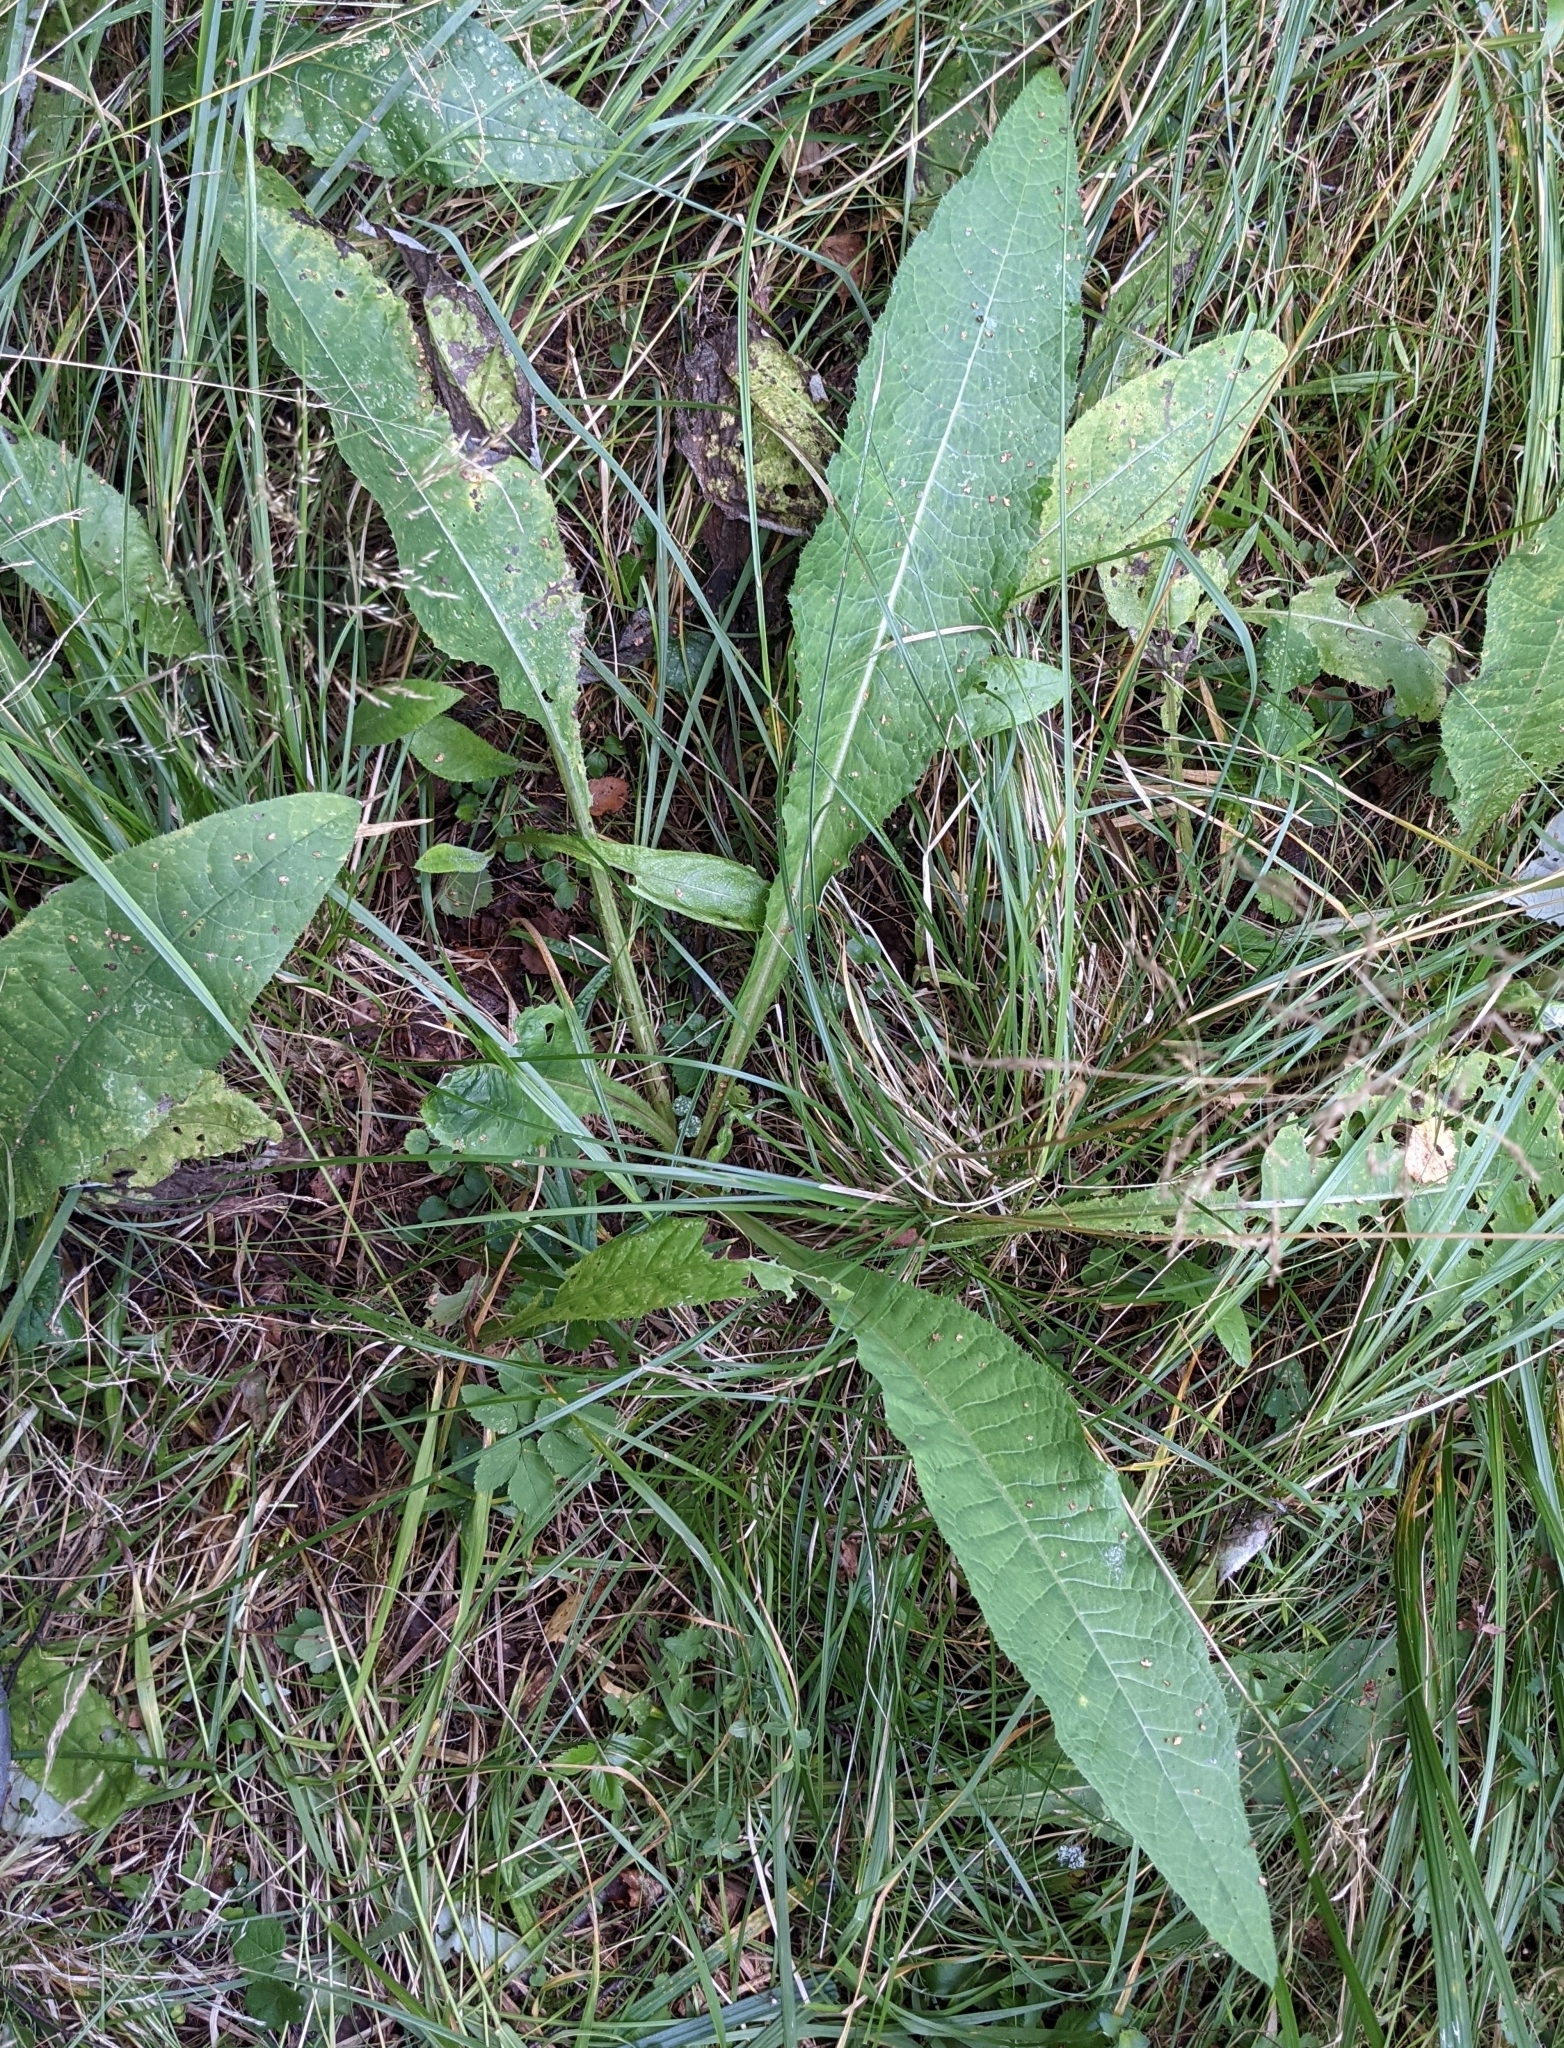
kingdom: Plantae
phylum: Tracheophyta
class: Magnoliopsida
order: Asterales
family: Asteraceae
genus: Cirsium
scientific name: Cirsium heterophyllum
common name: Melancholy thistle
